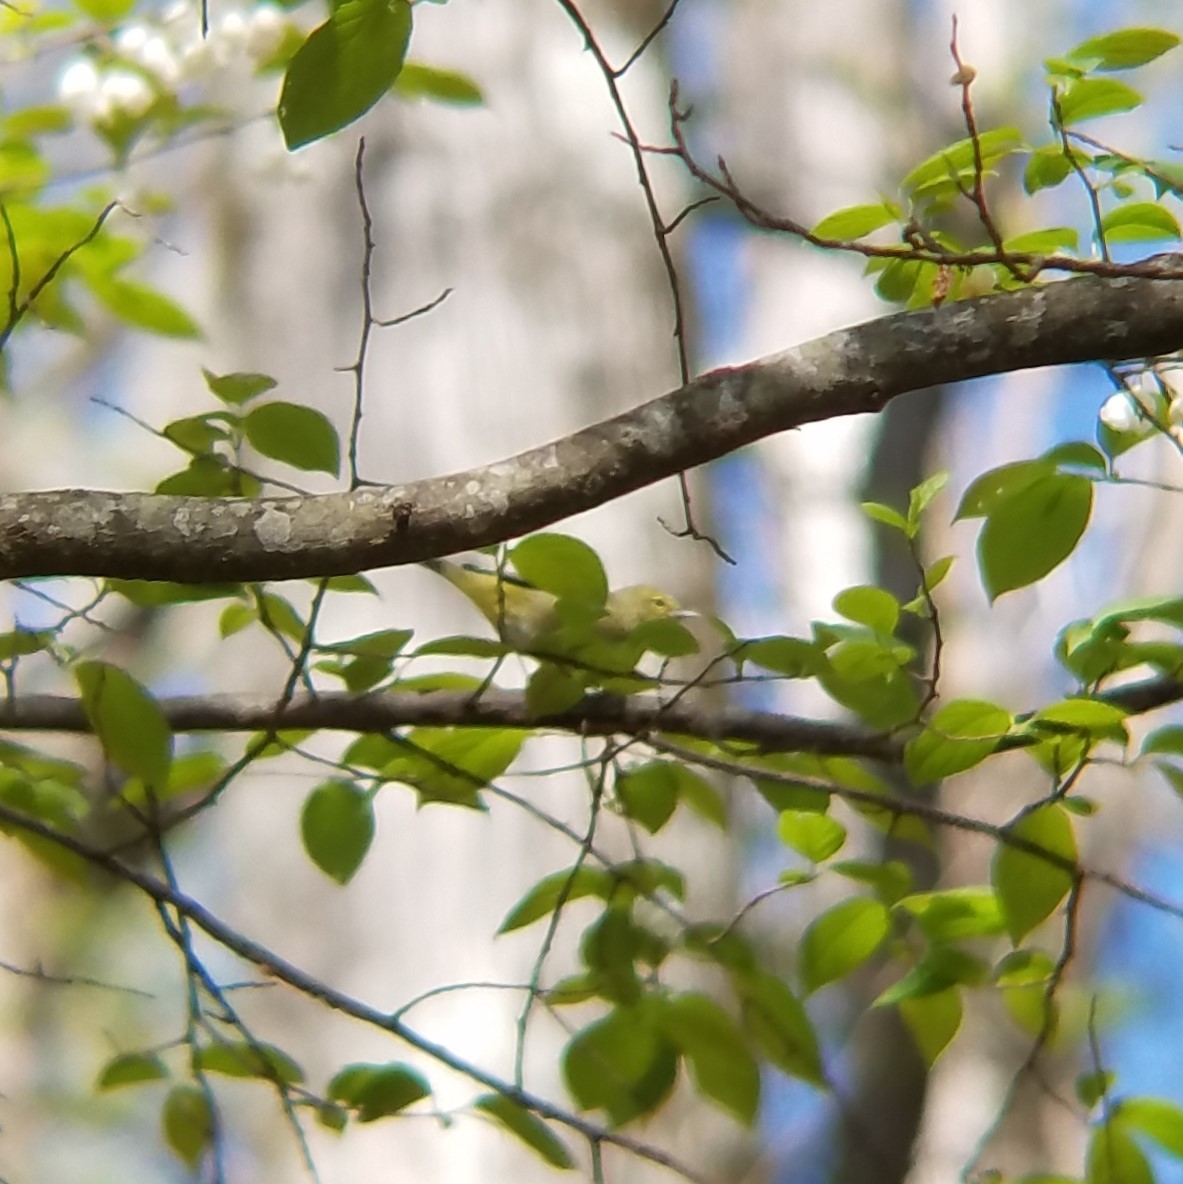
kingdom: Animalia
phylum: Chordata
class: Aves
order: Passeriformes
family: Parulidae
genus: Leiothlypis
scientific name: Leiothlypis celata
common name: Orange-crowned warbler
